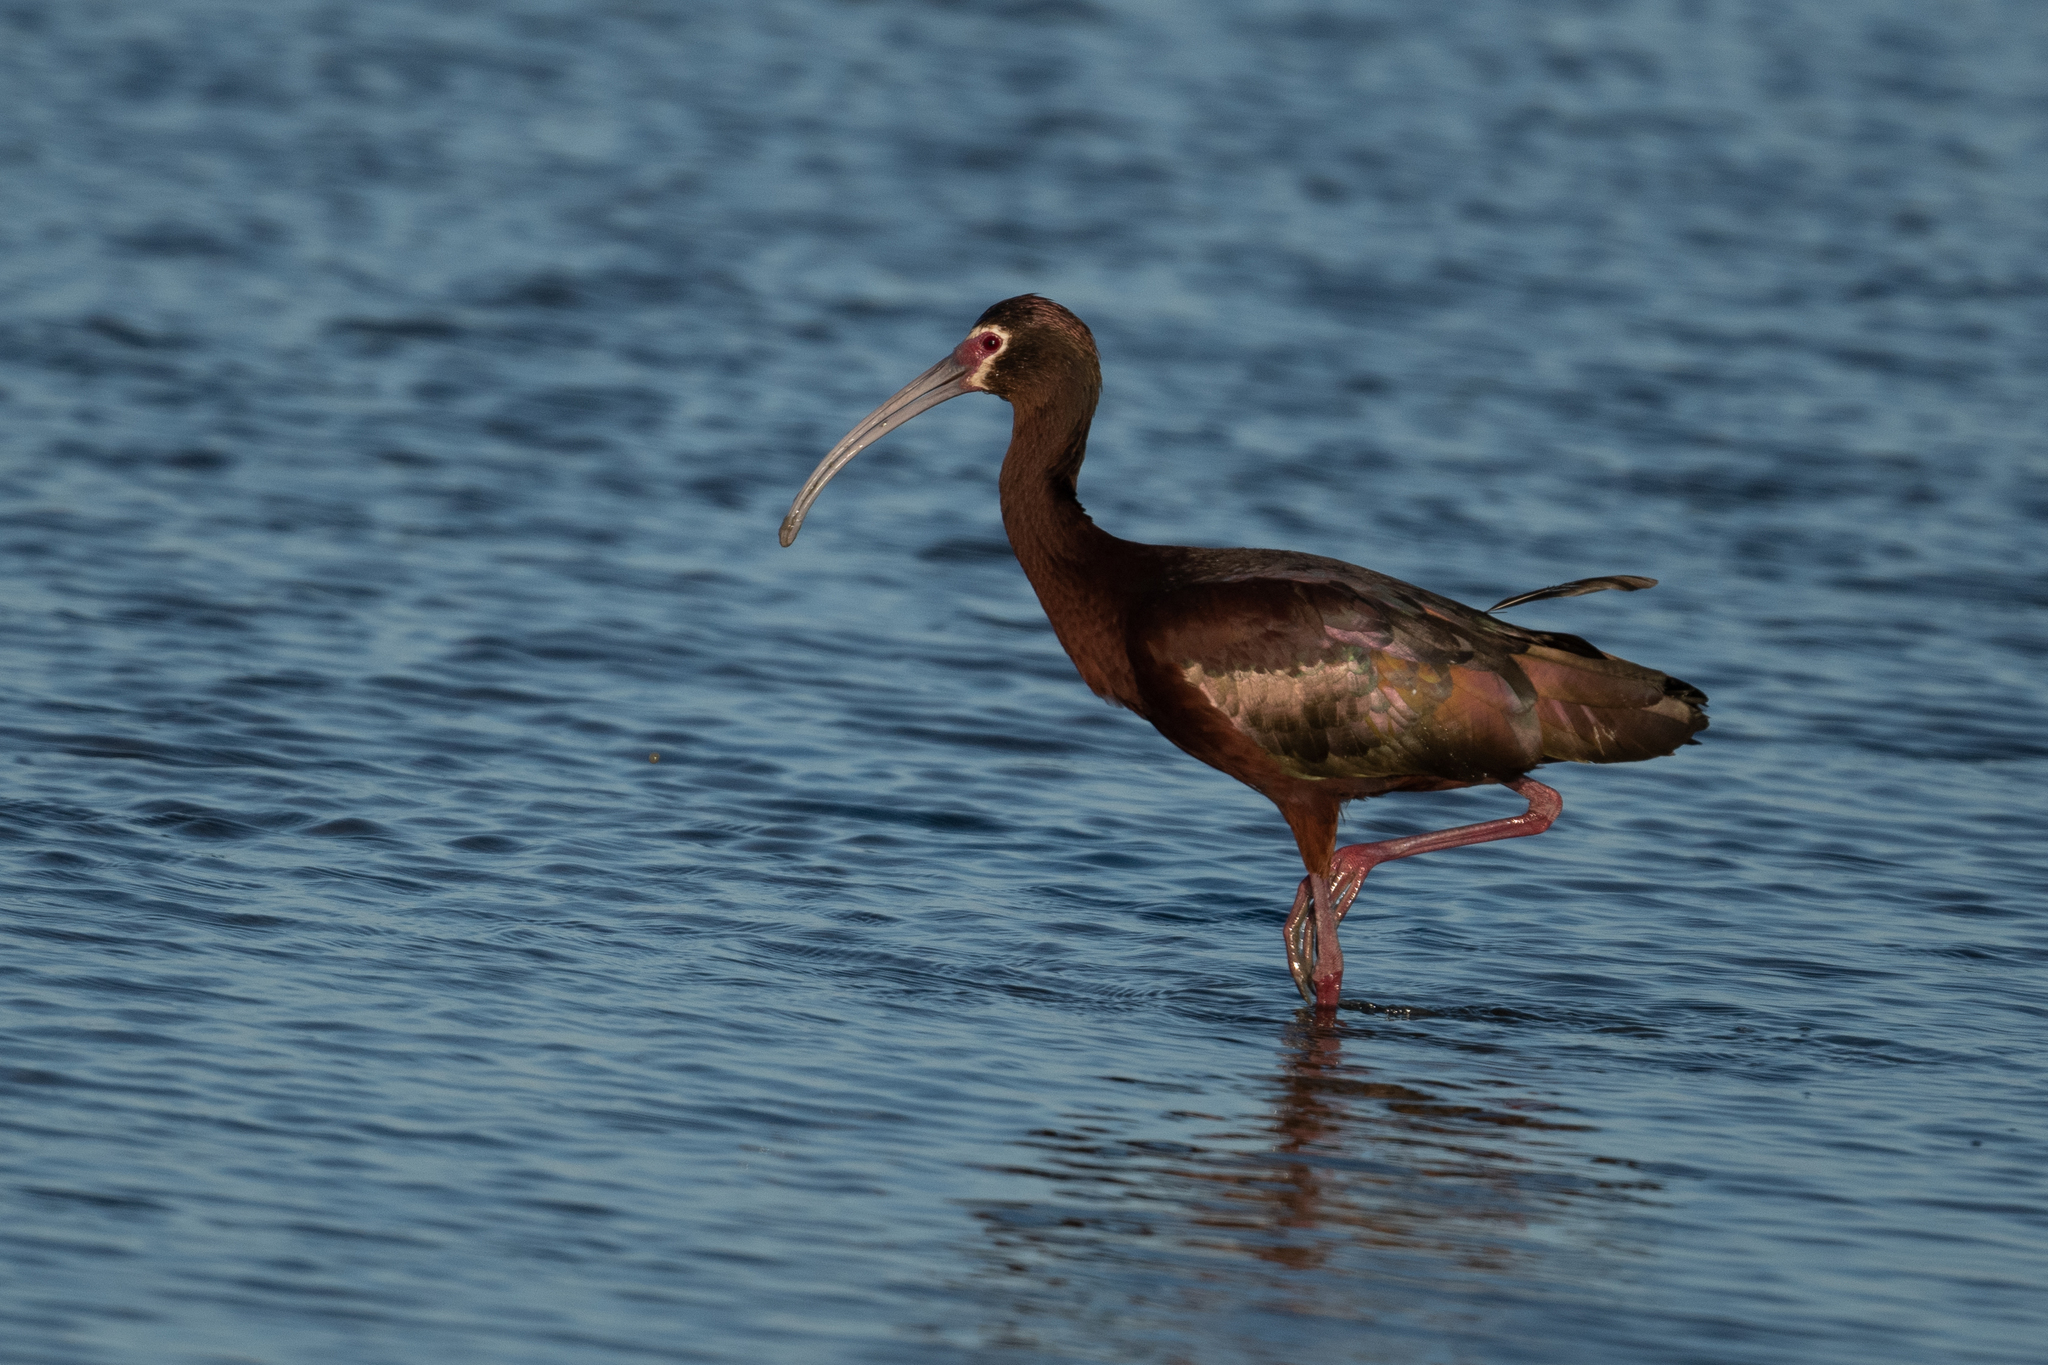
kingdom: Animalia
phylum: Chordata
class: Aves
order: Pelecaniformes
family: Threskiornithidae
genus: Plegadis
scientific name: Plegadis chihi
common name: White-faced ibis
